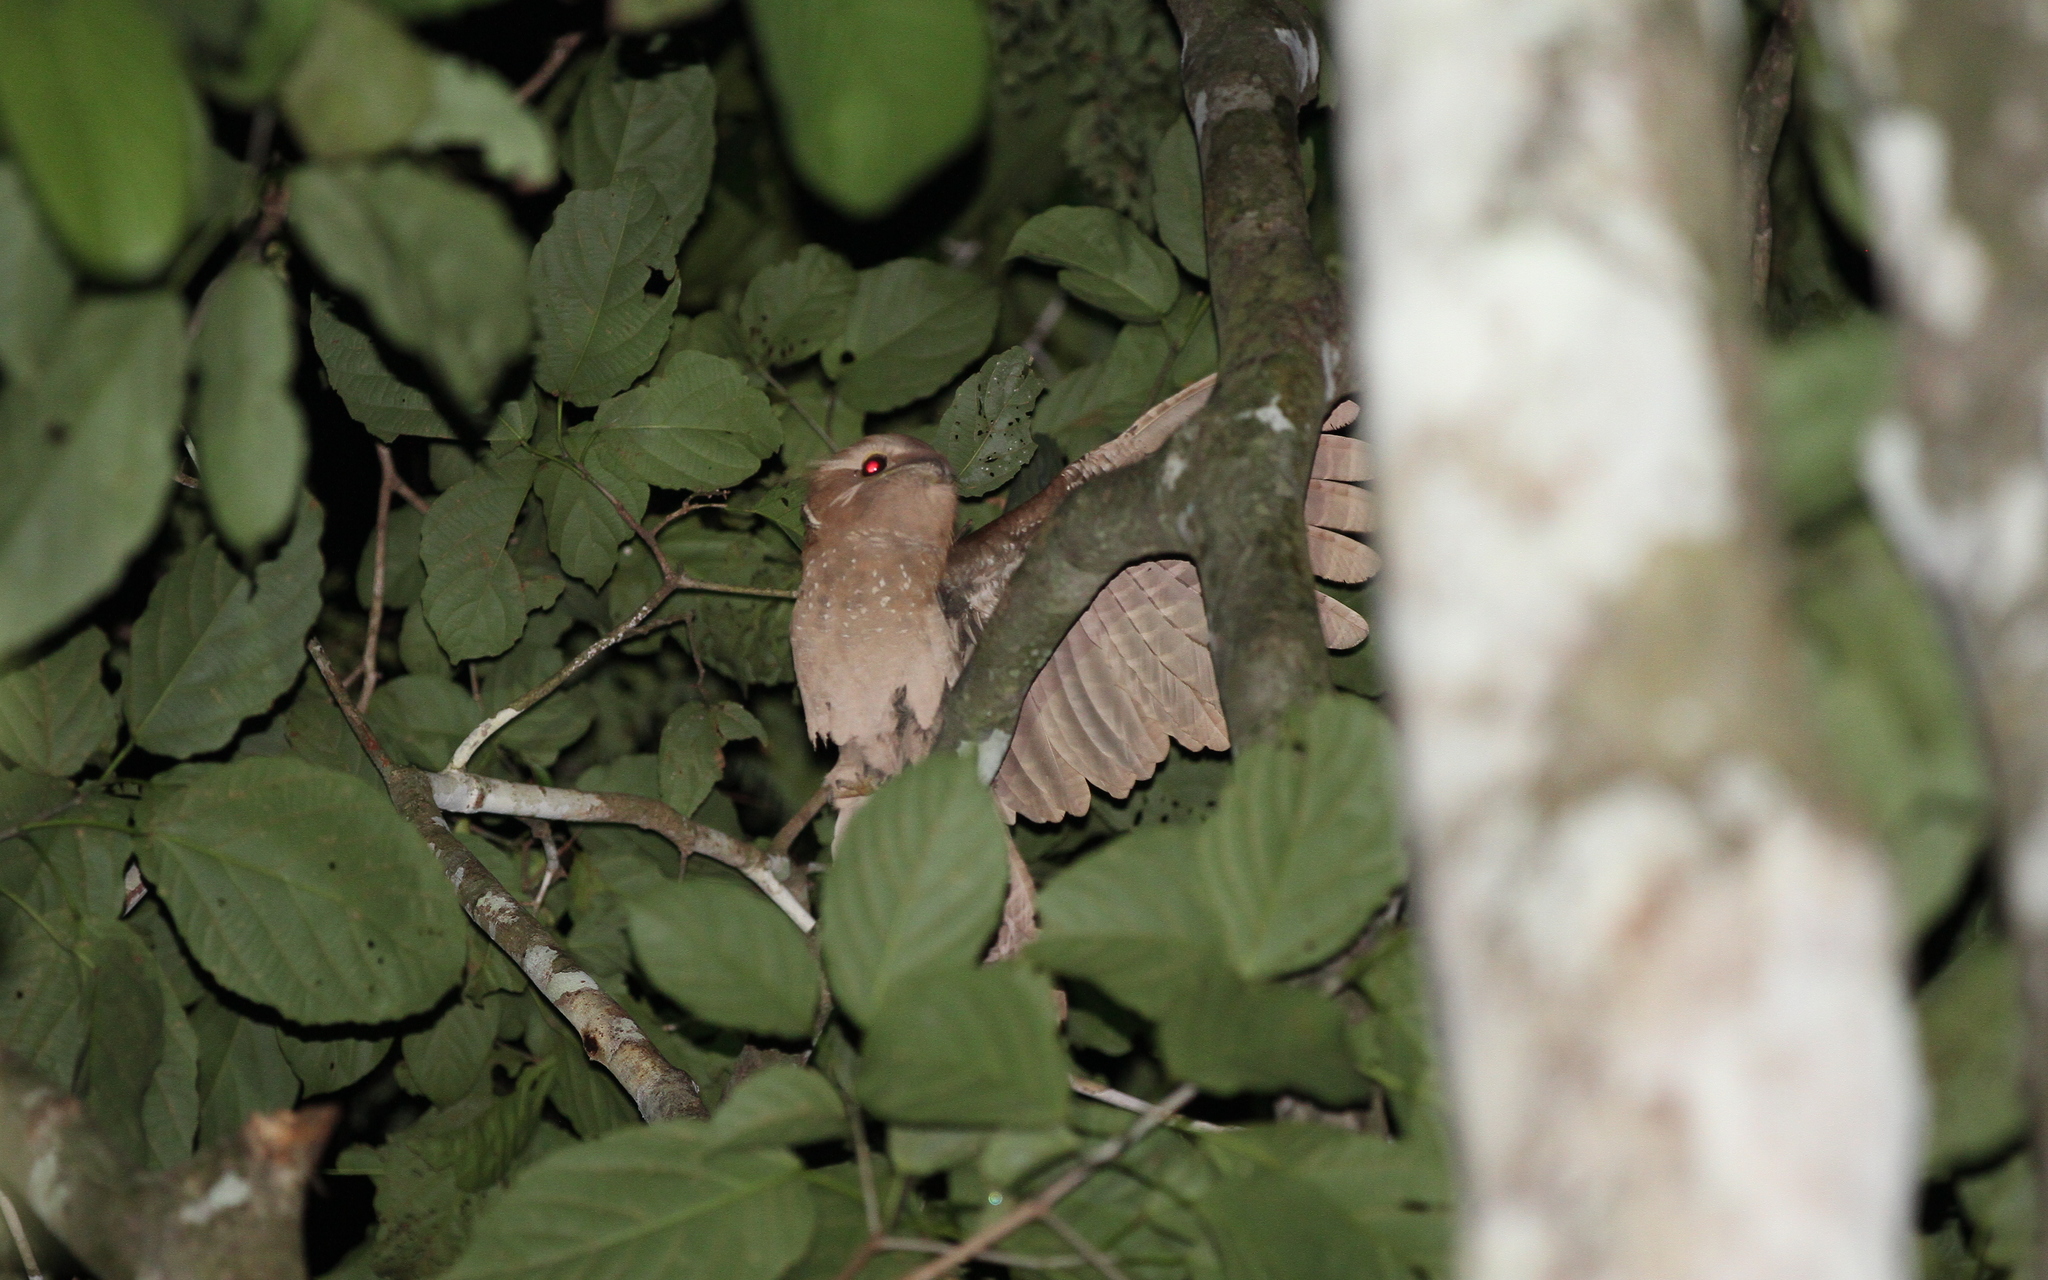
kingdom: Animalia
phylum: Chordata
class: Aves
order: Caprimulgiformes
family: Podargidae
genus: Batrachostomus
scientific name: Batrachostomus auritus
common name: Large frogmouth
